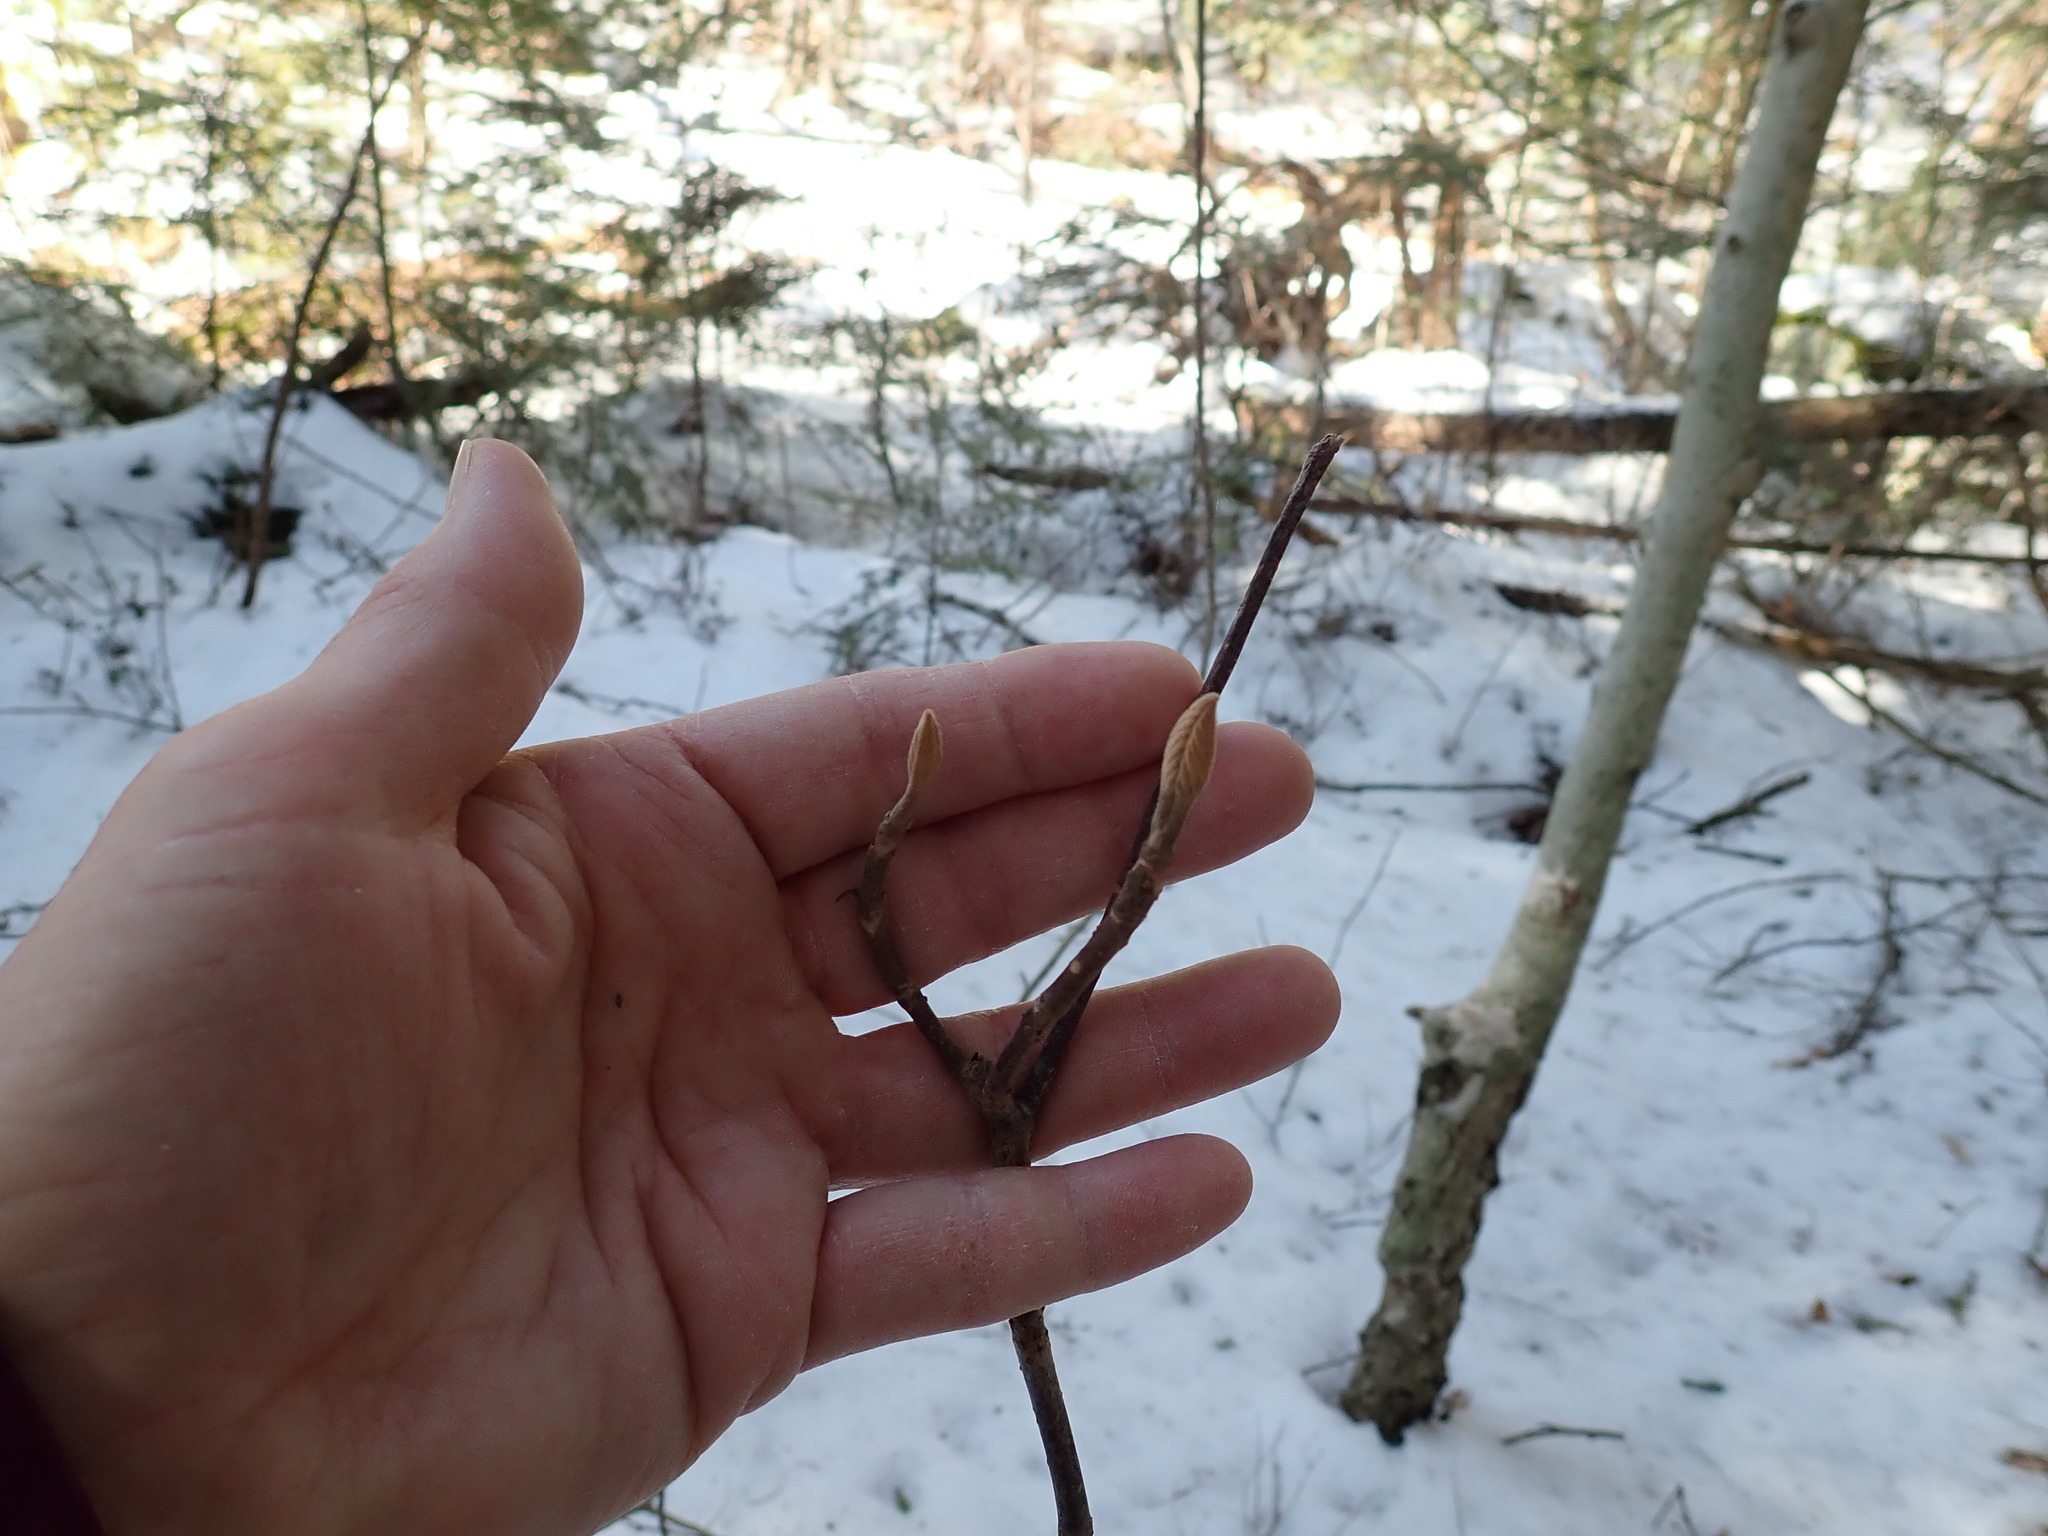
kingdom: Plantae
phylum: Tracheophyta
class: Magnoliopsida
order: Dipsacales
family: Viburnaceae
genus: Viburnum
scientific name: Viburnum lantanoides
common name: Hobblebush
